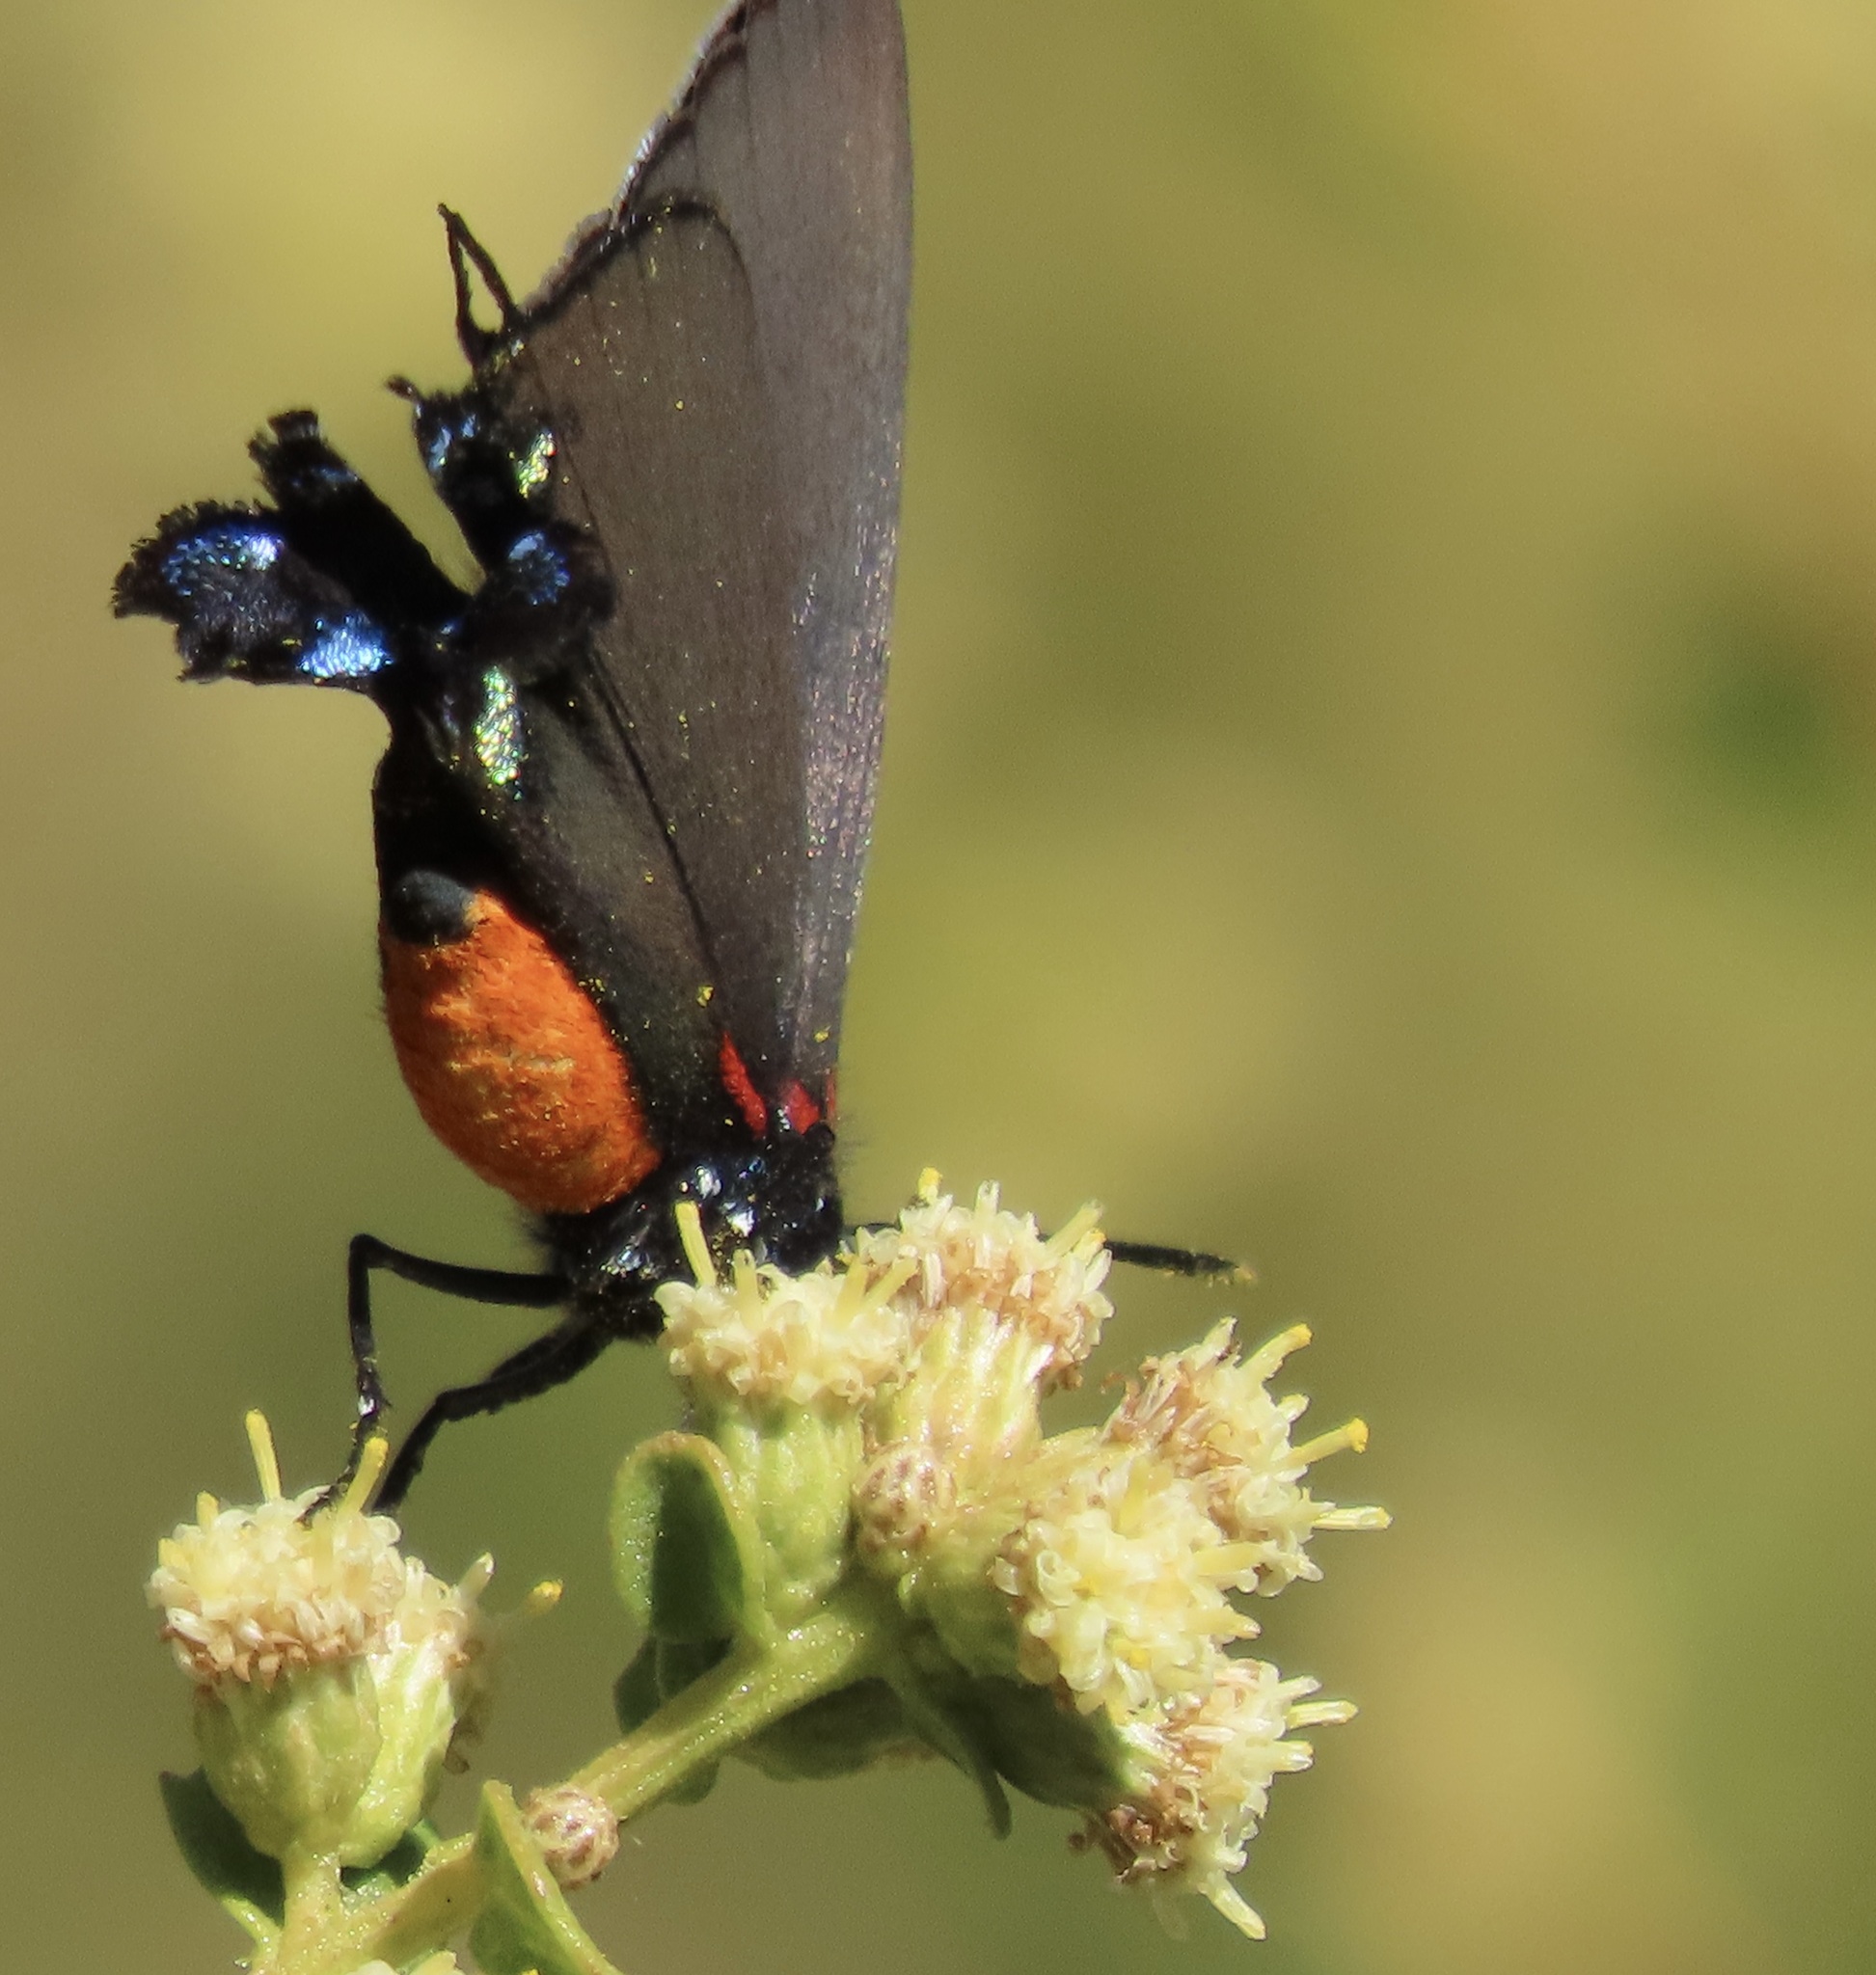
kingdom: Animalia
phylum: Arthropoda
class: Insecta
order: Lepidoptera
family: Lycaenidae
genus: Atlides
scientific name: Atlides halesus
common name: Great purple hairstreak
